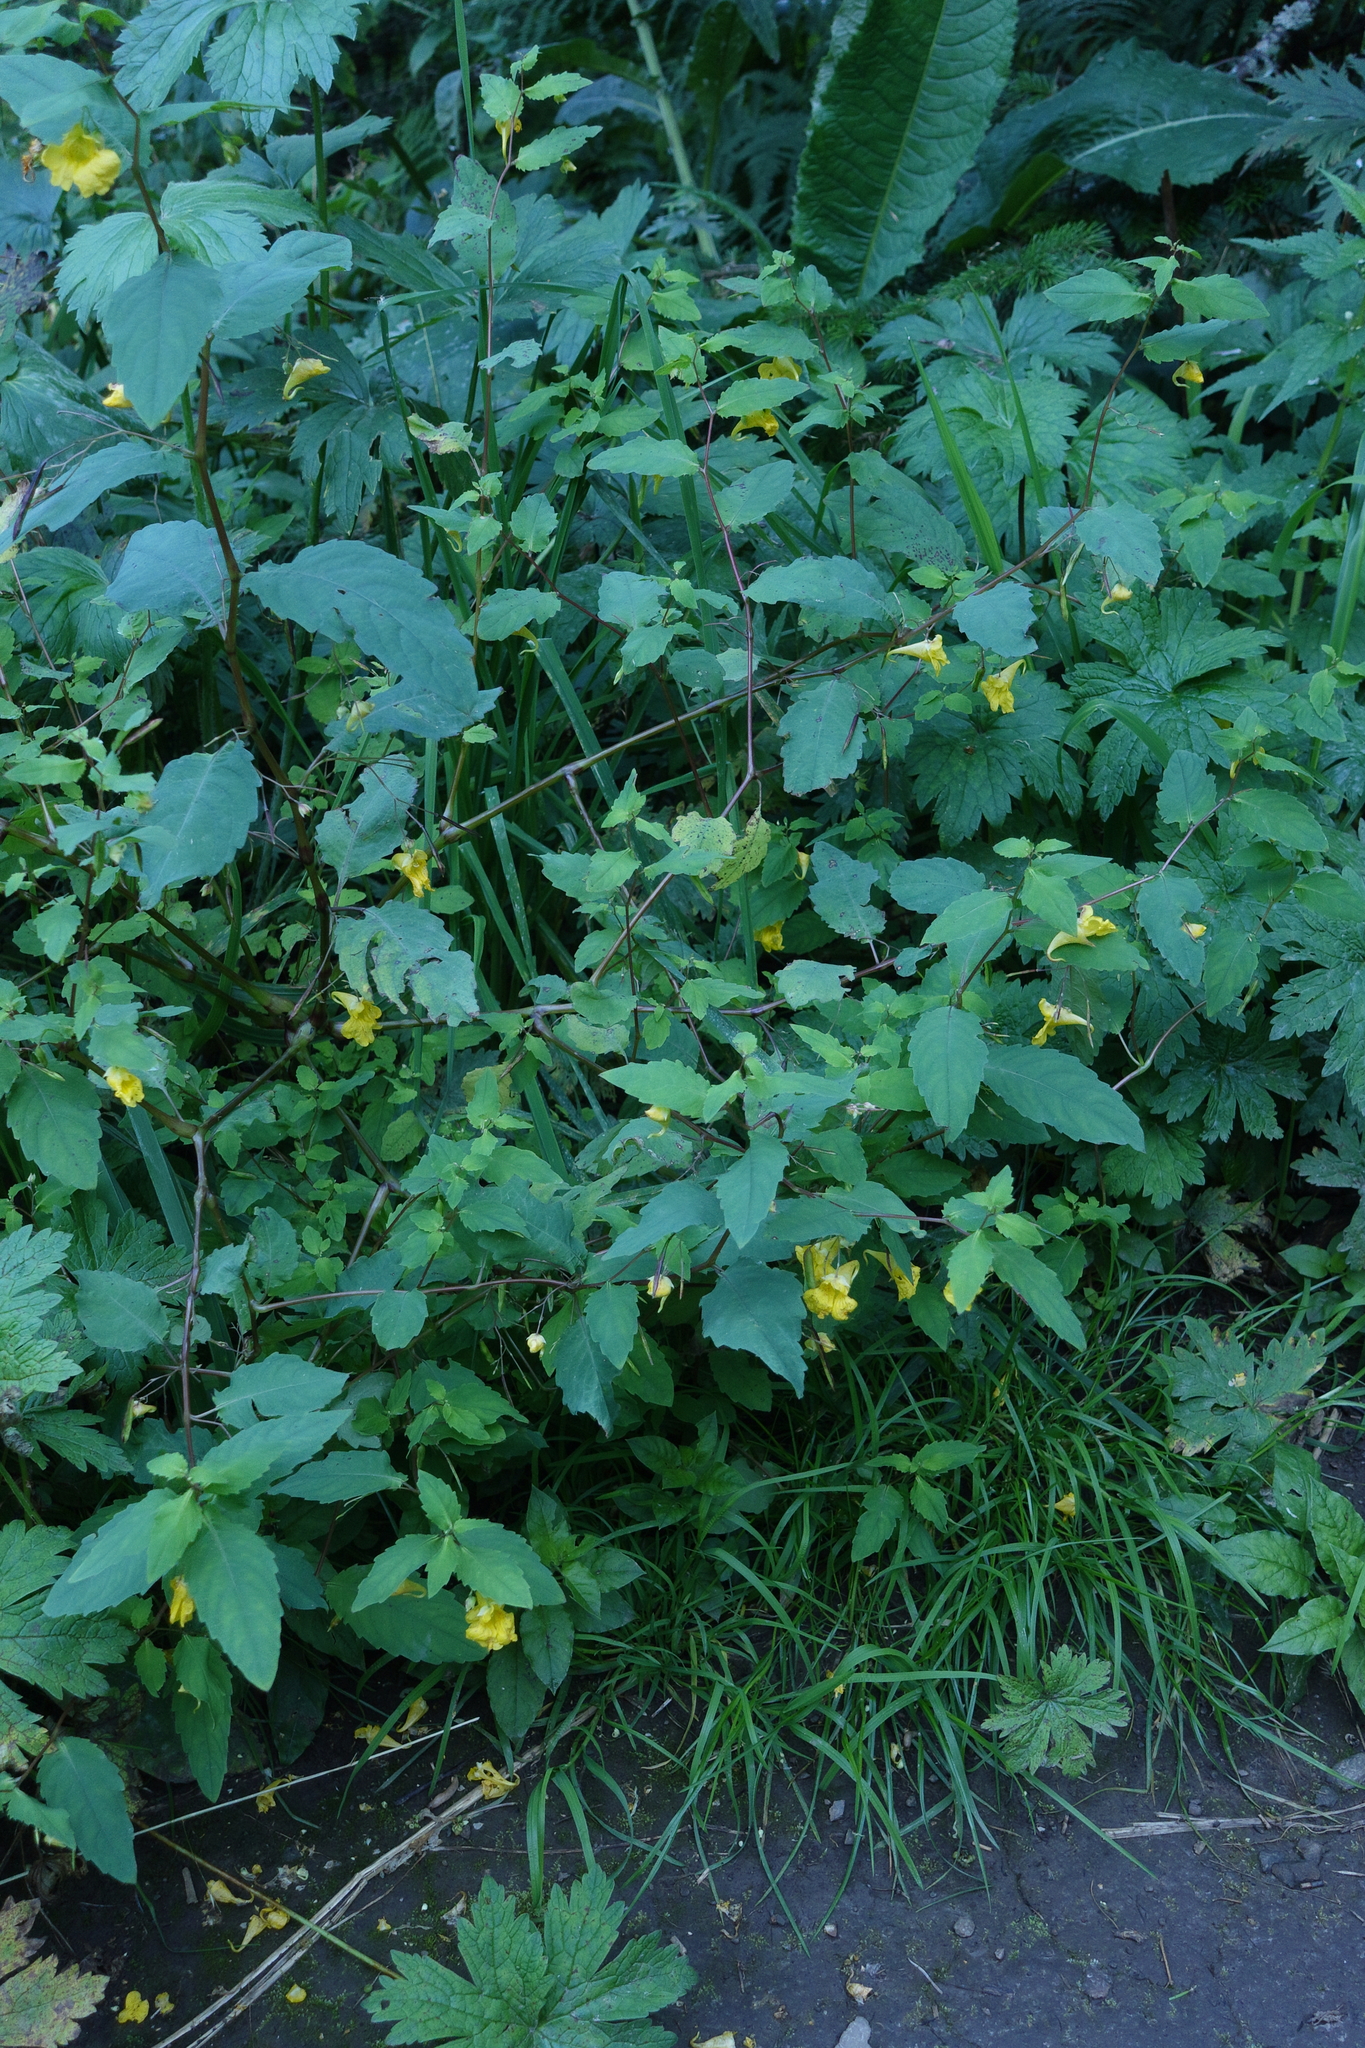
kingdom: Plantae
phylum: Tracheophyta
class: Magnoliopsida
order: Ericales
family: Balsaminaceae
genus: Impatiens
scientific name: Impatiens noli-tangere
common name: Touch-me-not balsam
